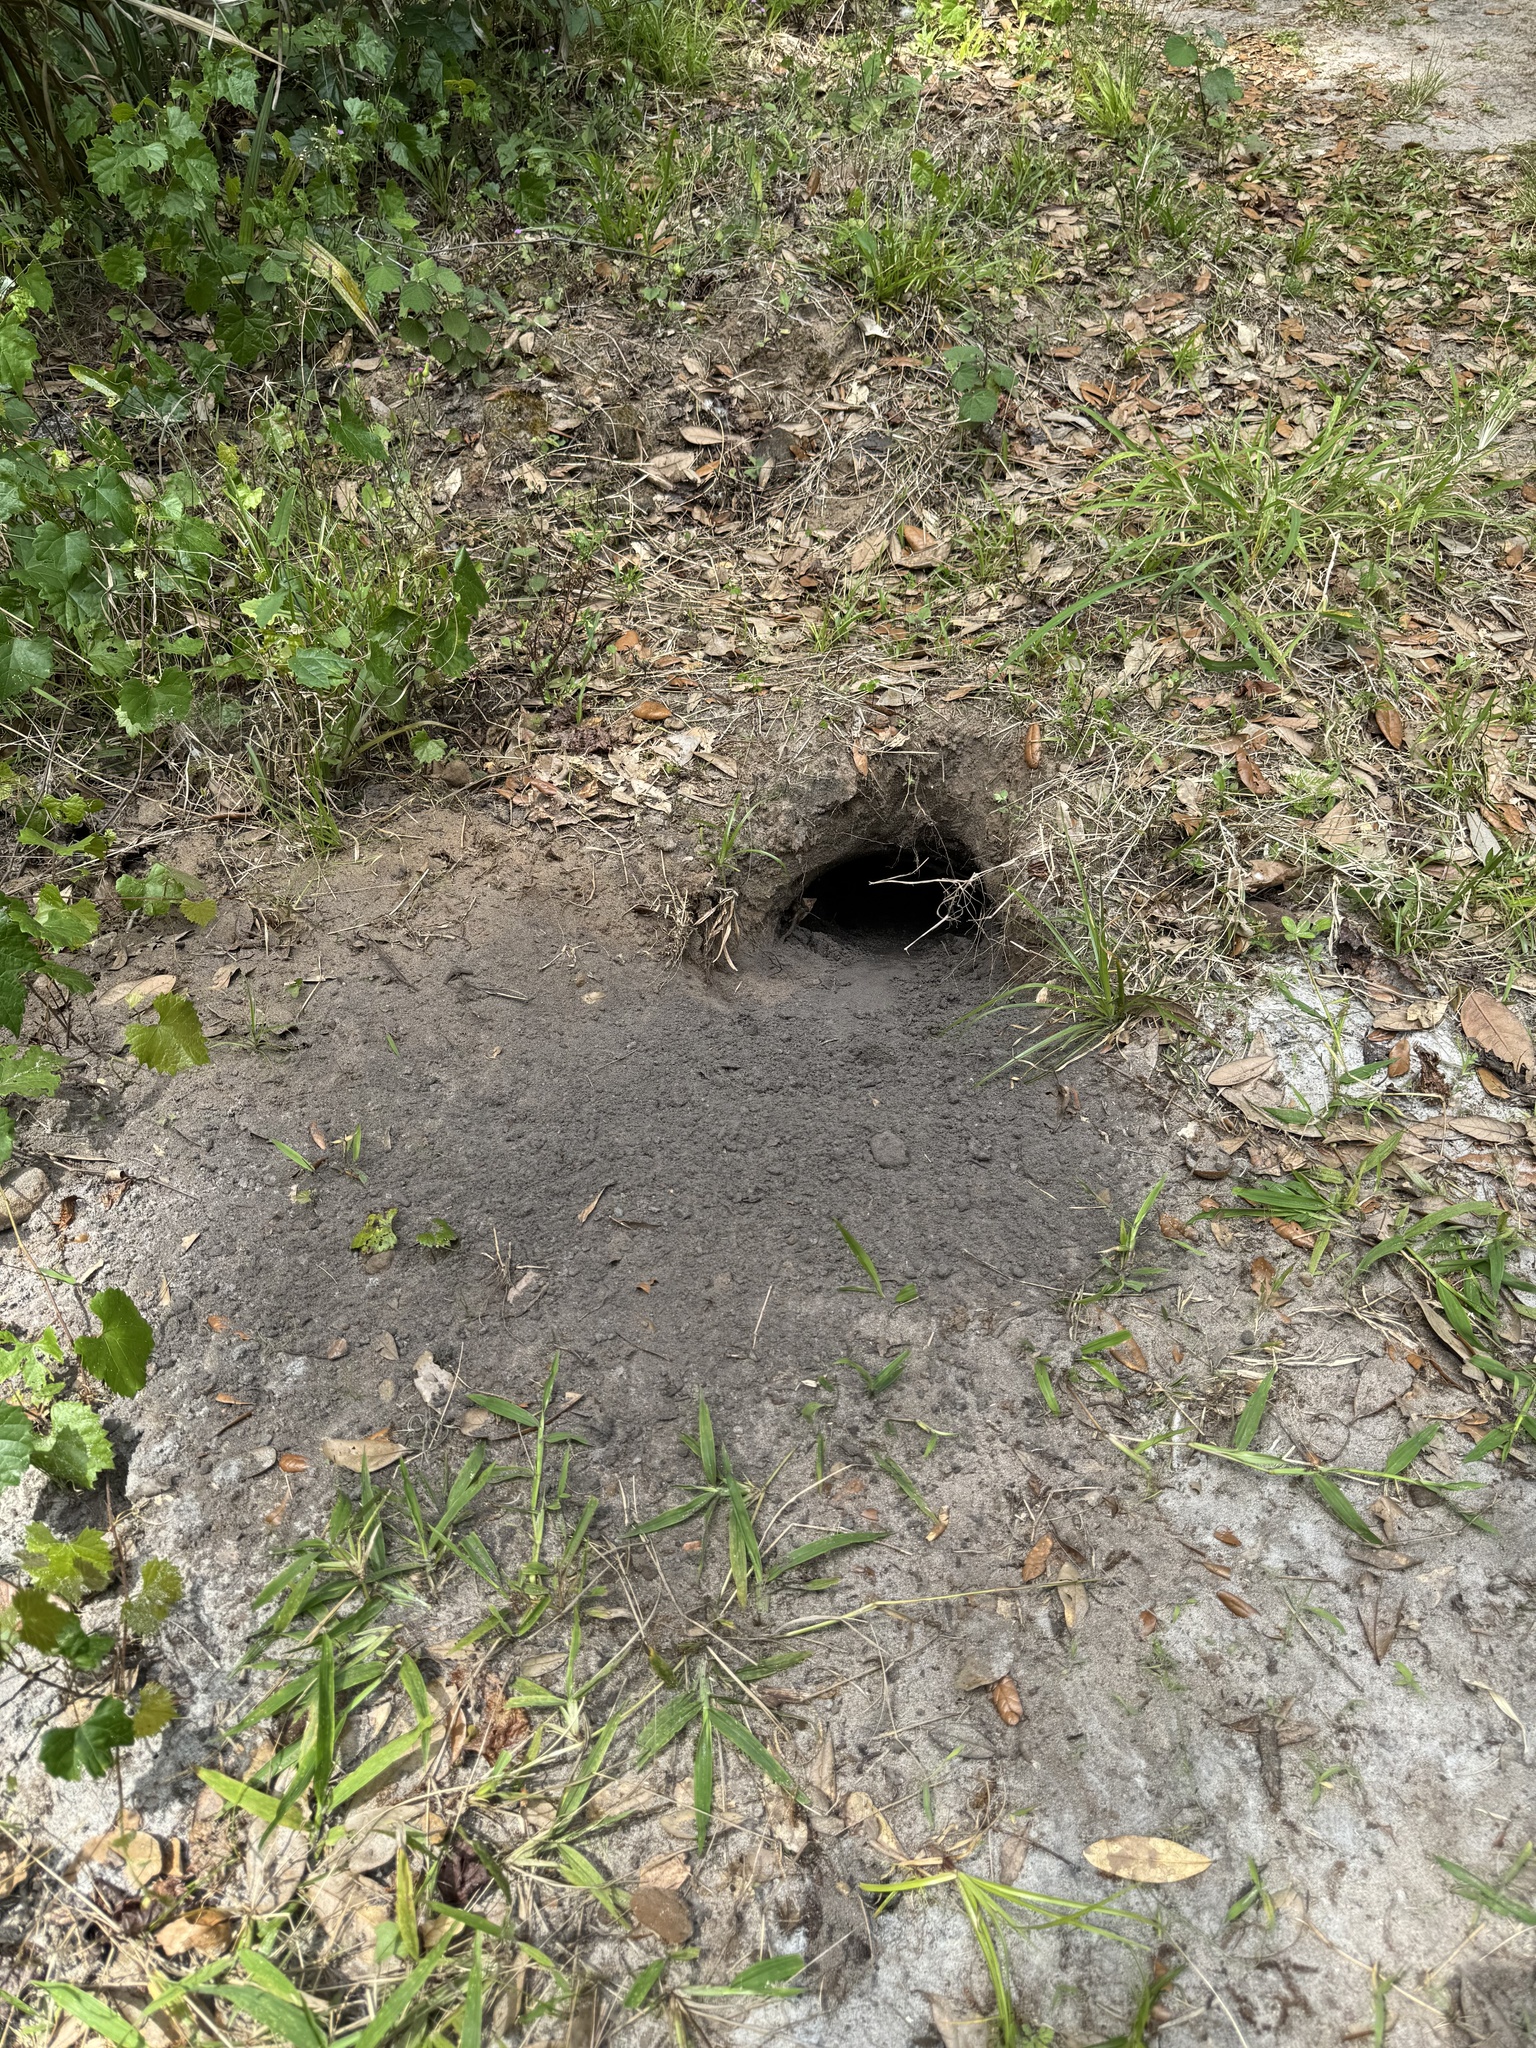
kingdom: Animalia
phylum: Chordata
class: Testudines
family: Testudinidae
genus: Gopherus
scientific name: Gopherus polyphemus
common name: Florida gopher tortoise
